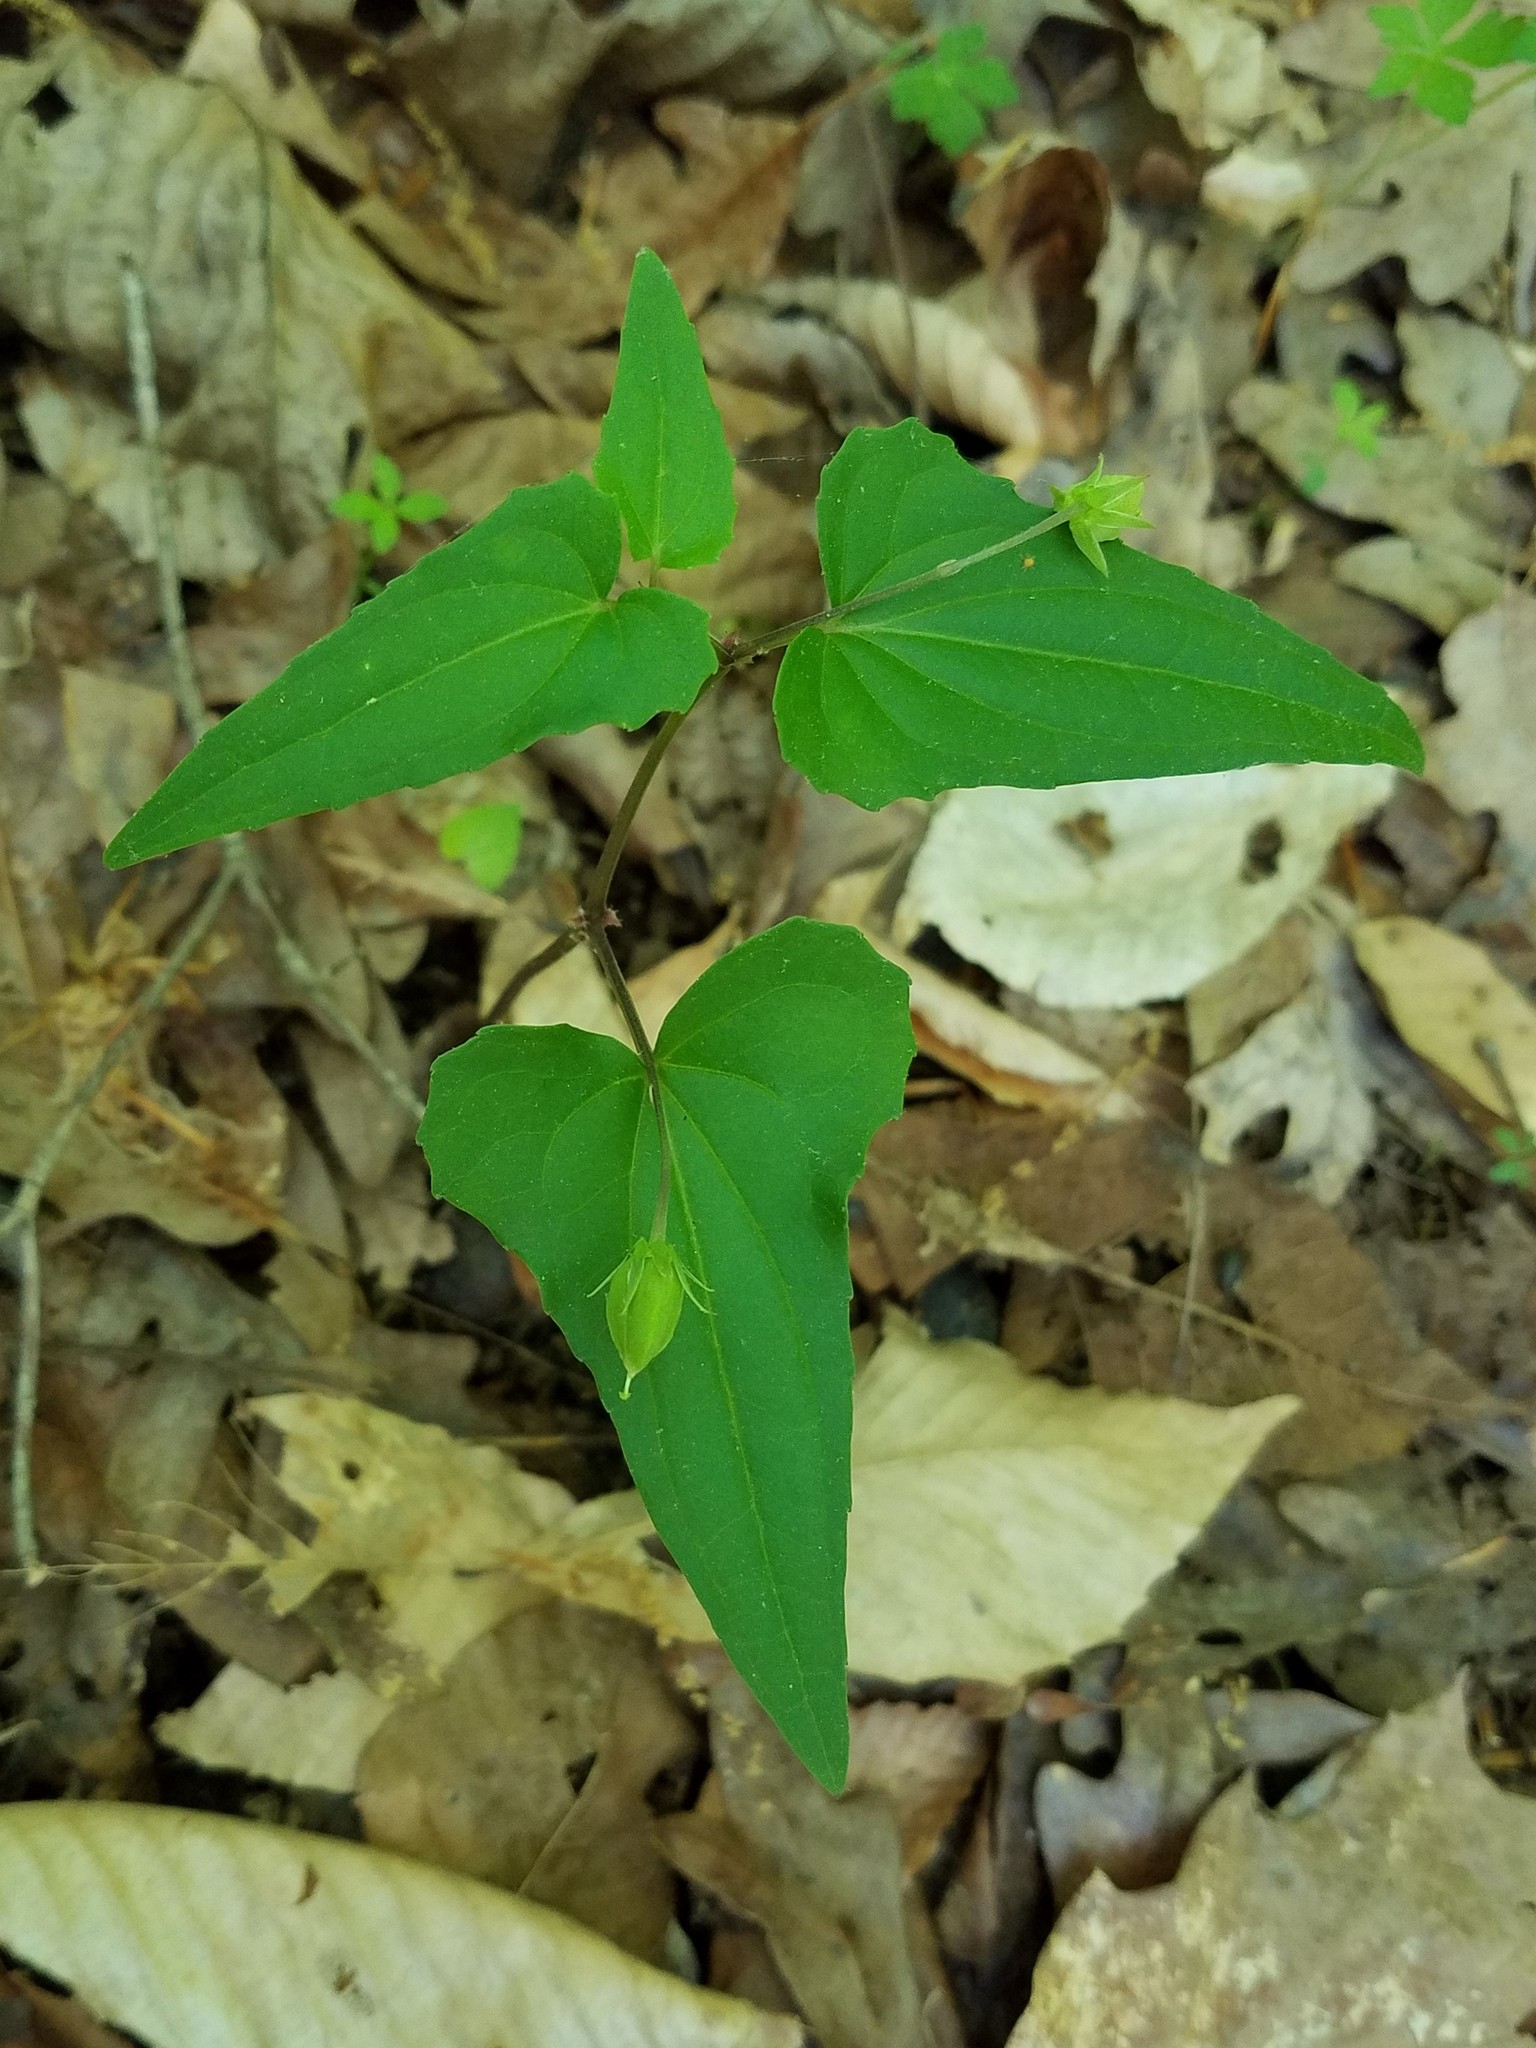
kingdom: Plantae
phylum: Tracheophyta
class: Magnoliopsida
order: Malpighiales
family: Violaceae
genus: Viola
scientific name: Viola hastata
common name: Spear-leaf violet
